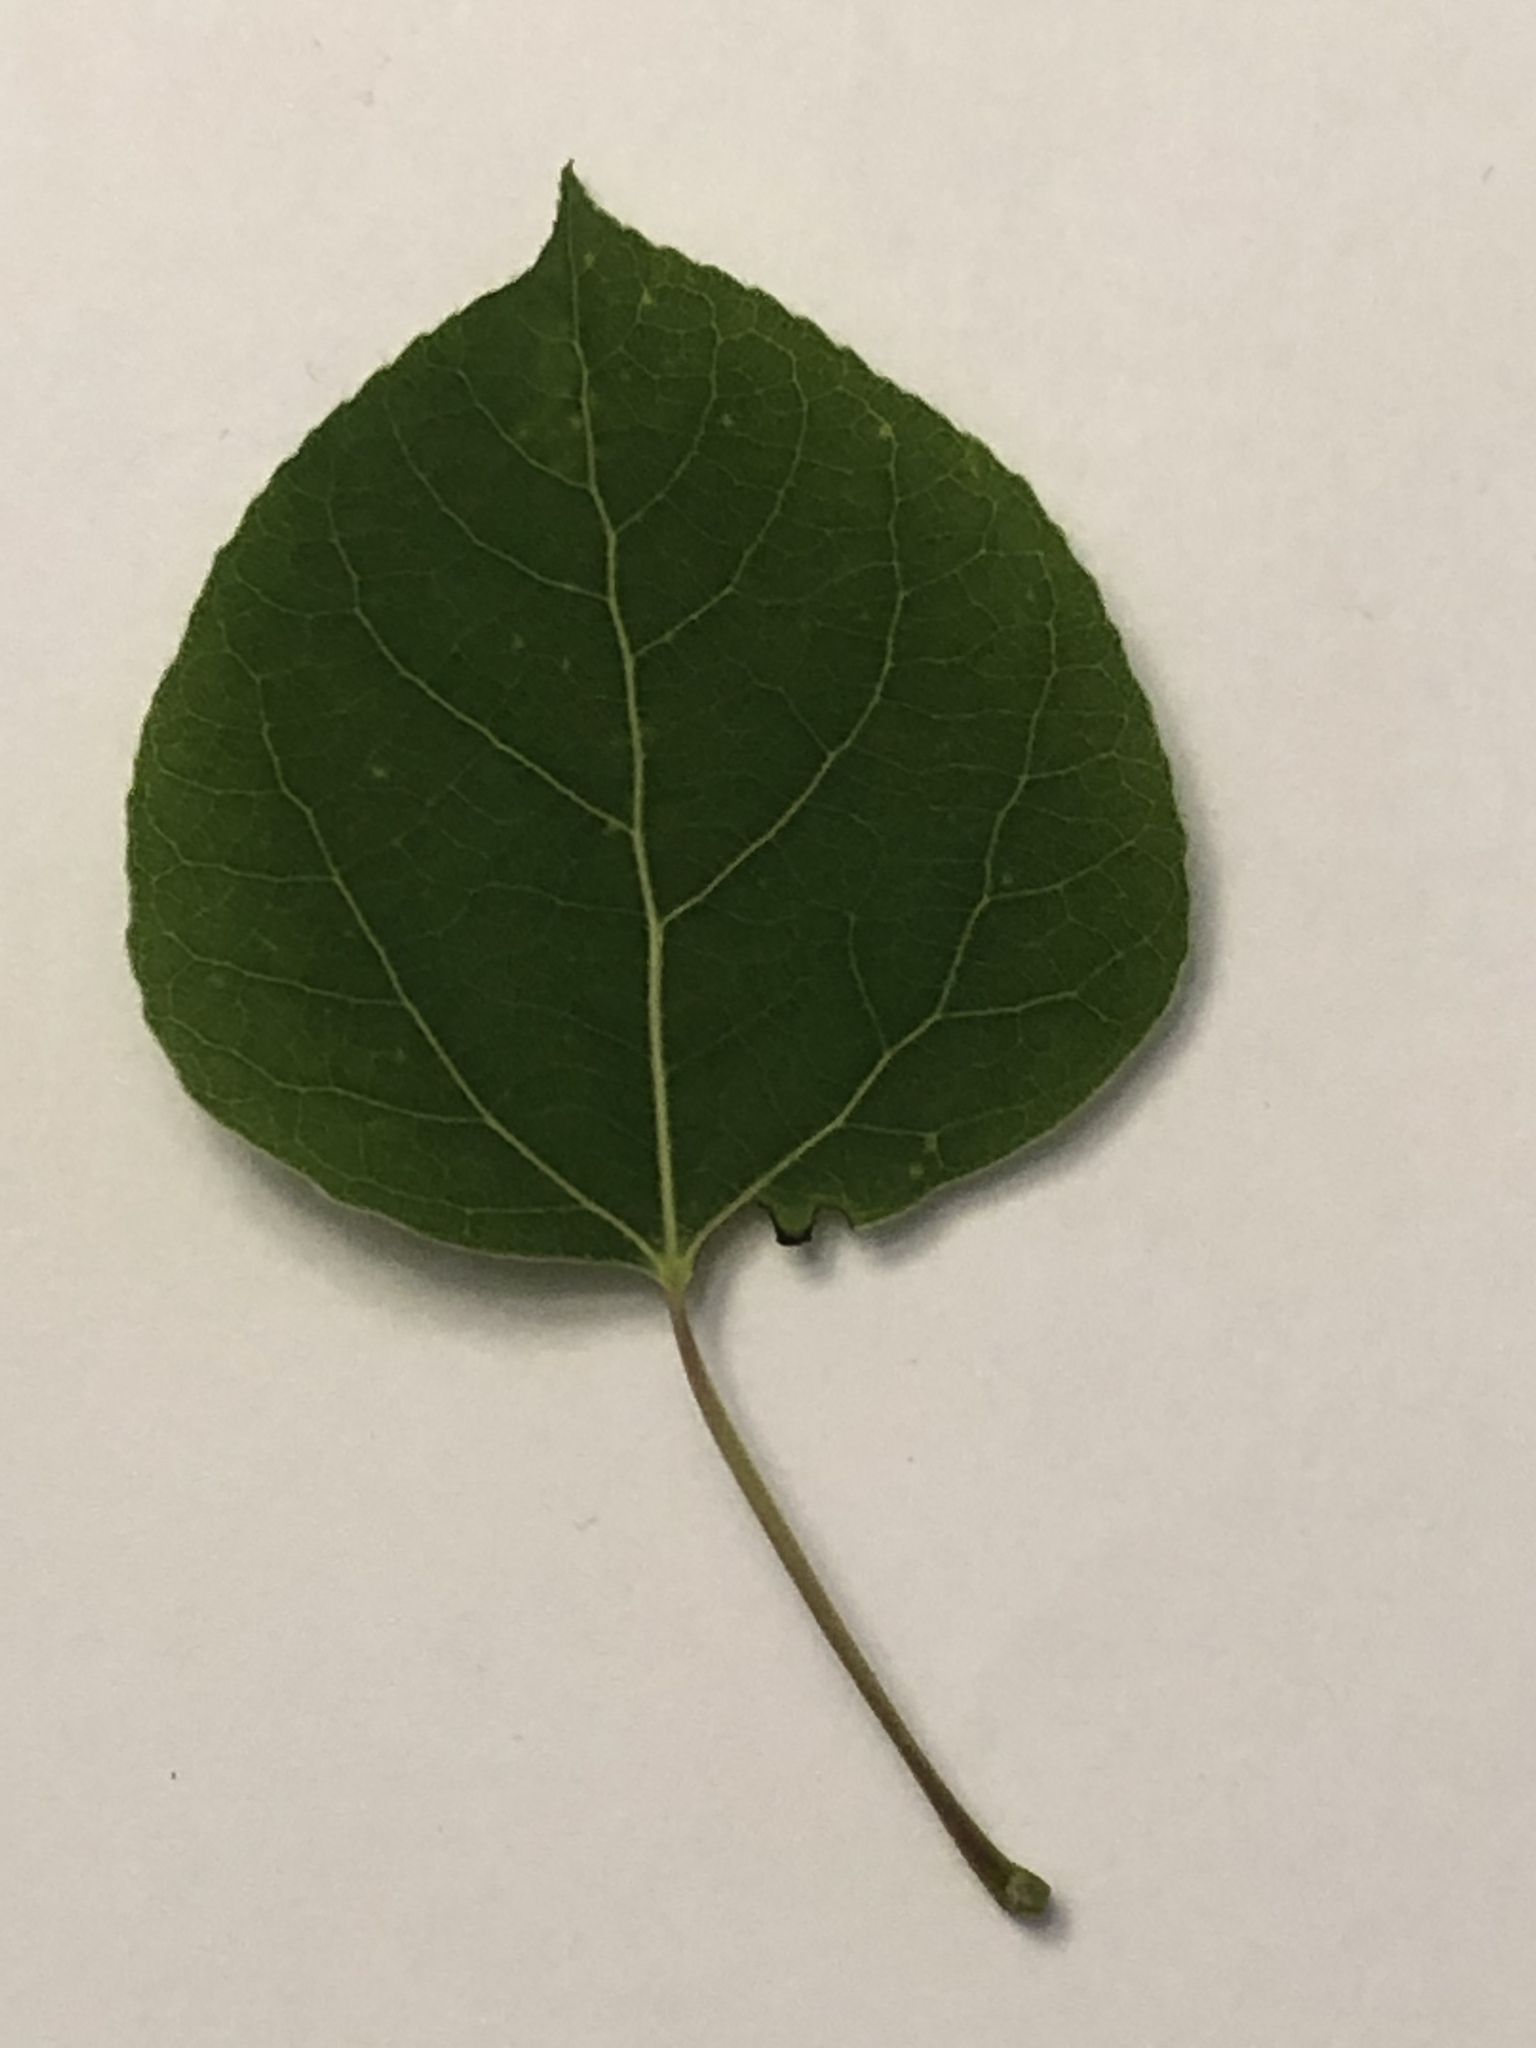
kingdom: Plantae
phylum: Tracheophyta
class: Magnoliopsida
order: Malpighiales
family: Salicaceae
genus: Populus
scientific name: Populus tremuloides
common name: Quaking aspen
